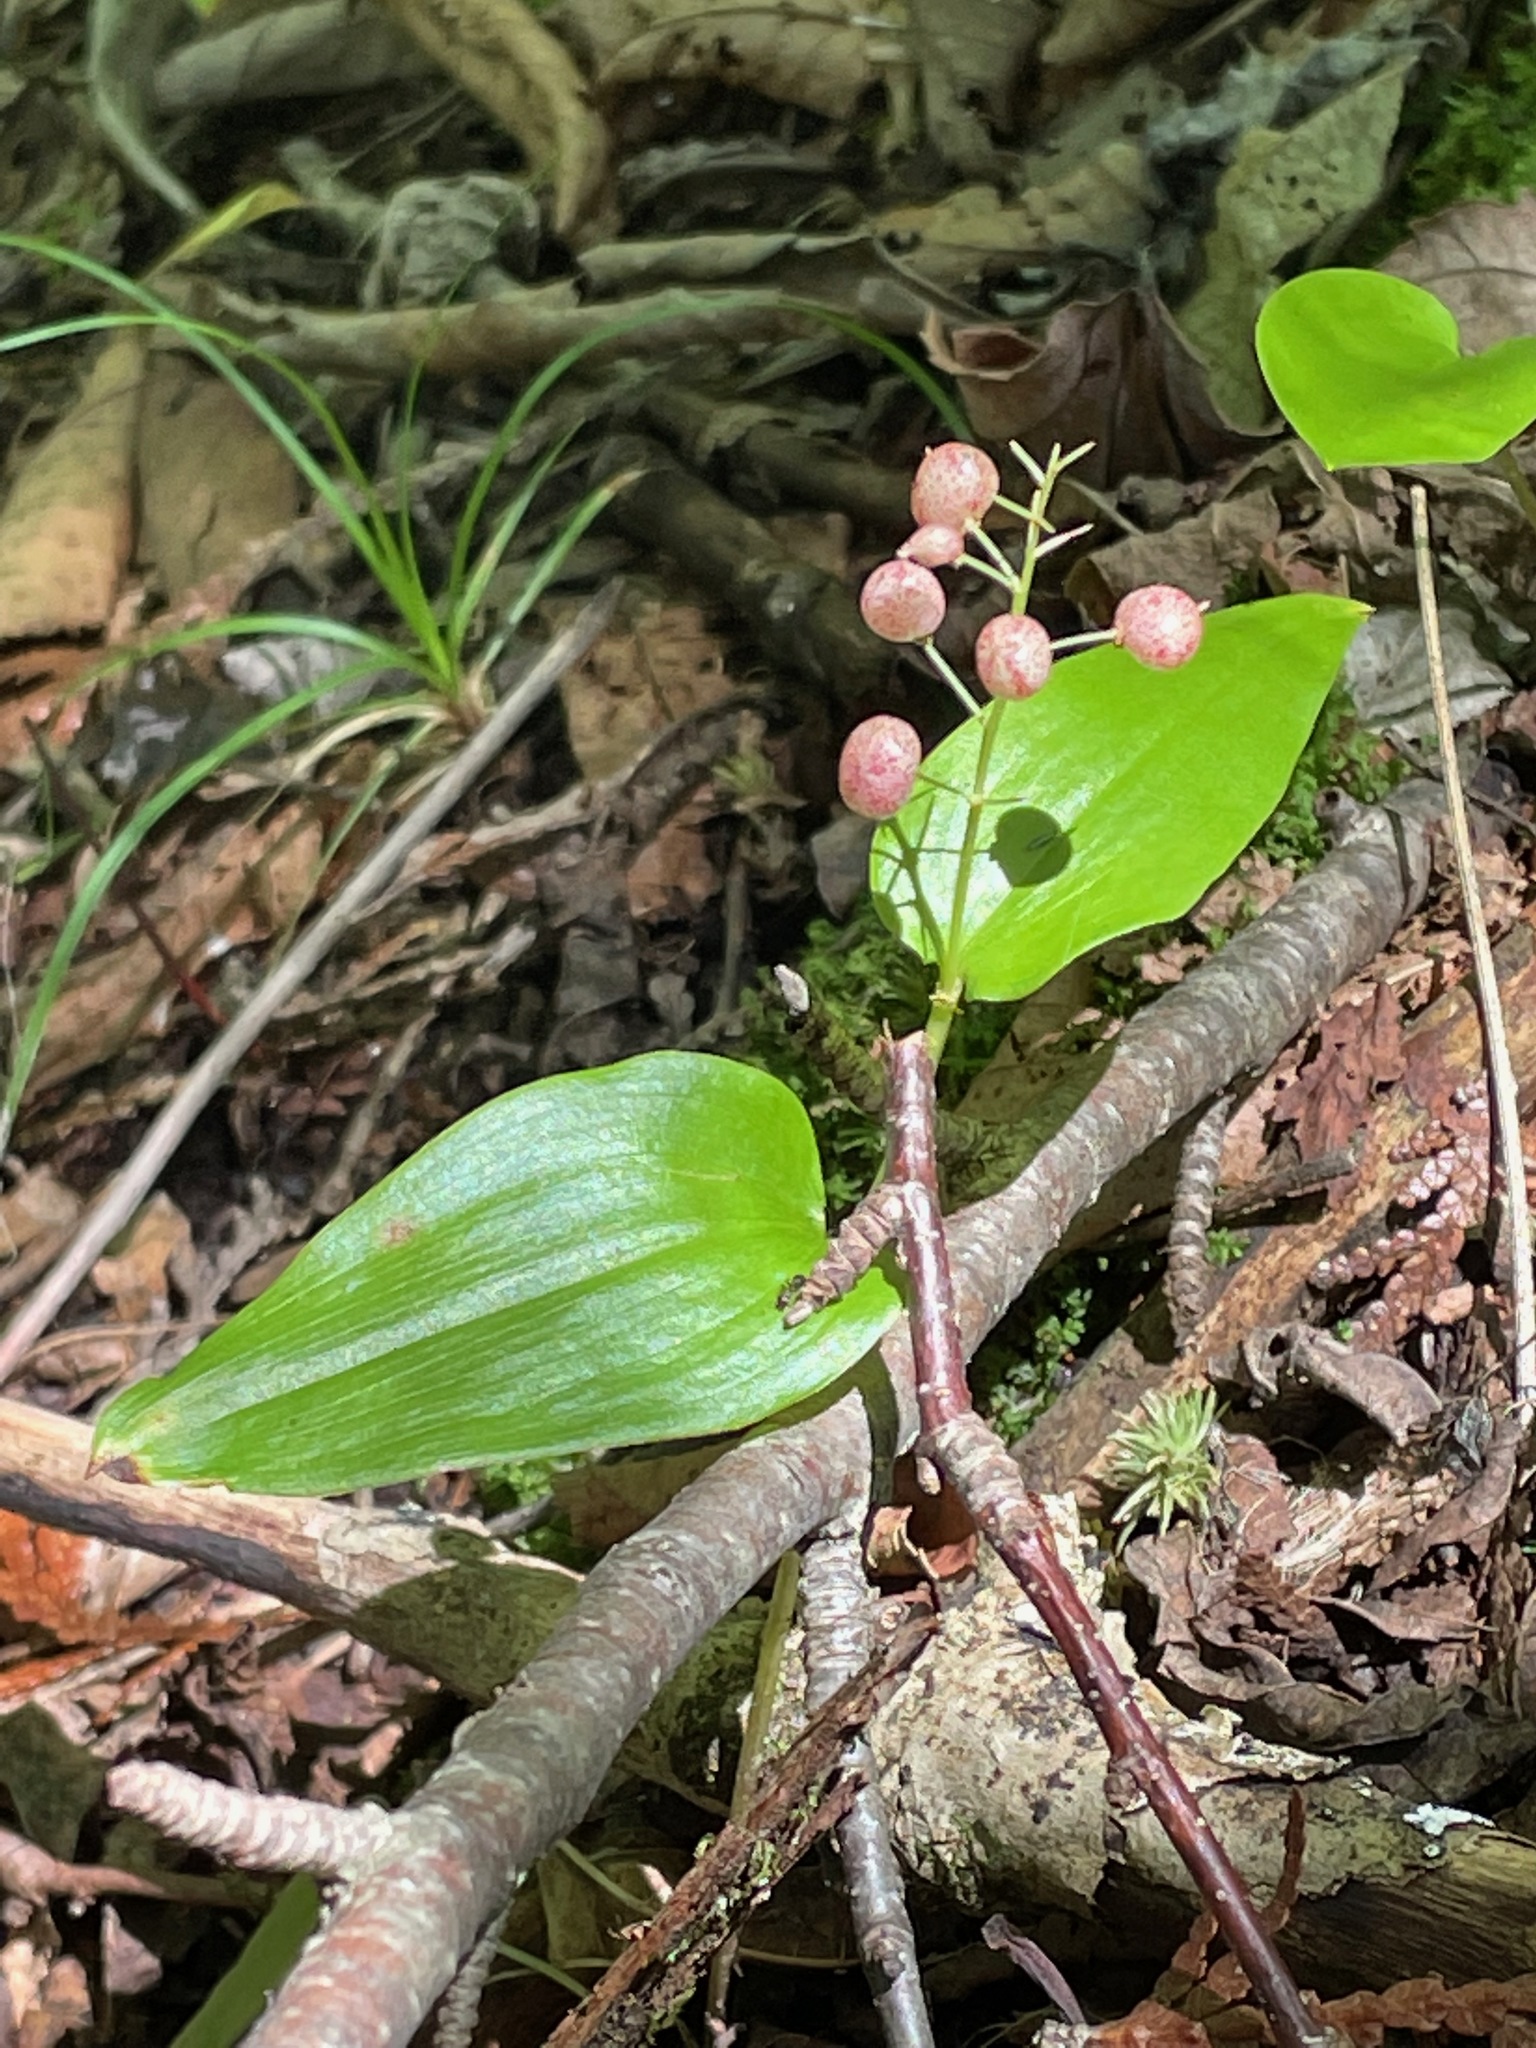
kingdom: Plantae
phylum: Tracheophyta
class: Liliopsida
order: Asparagales
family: Asparagaceae
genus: Maianthemum
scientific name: Maianthemum canadense
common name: False lily-of-the-valley
